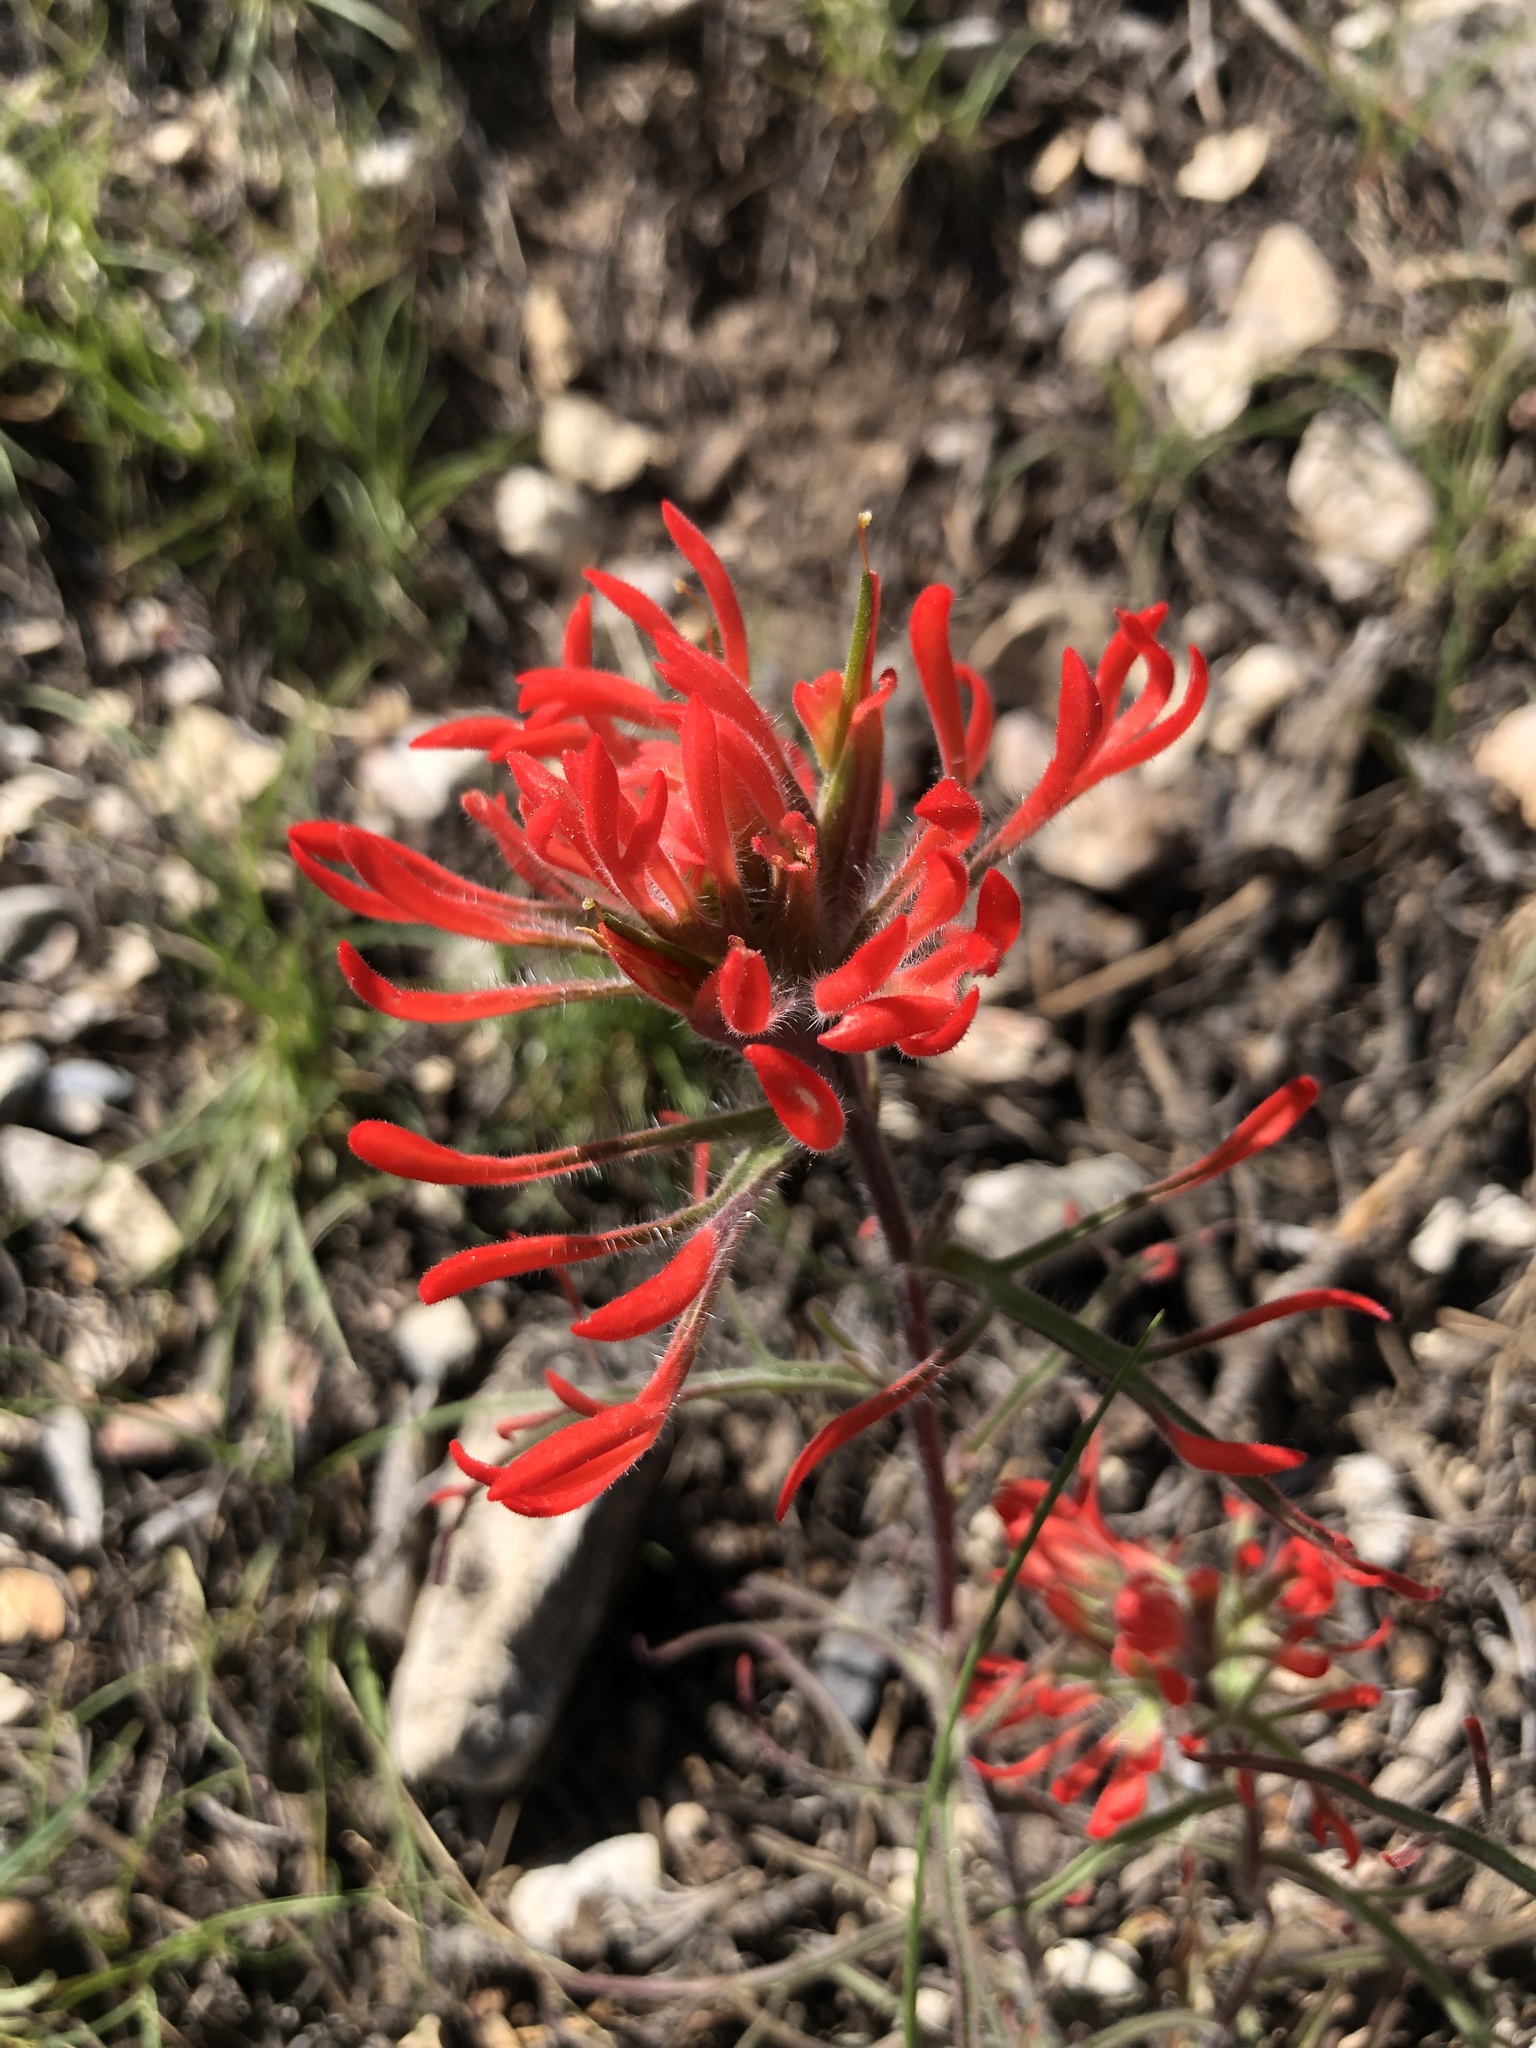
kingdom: Plantae
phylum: Tracheophyta
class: Magnoliopsida
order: Lamiales
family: Orobanchaceae
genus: Castilleja
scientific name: Castilleja chromosa
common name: Desert paintbrush
